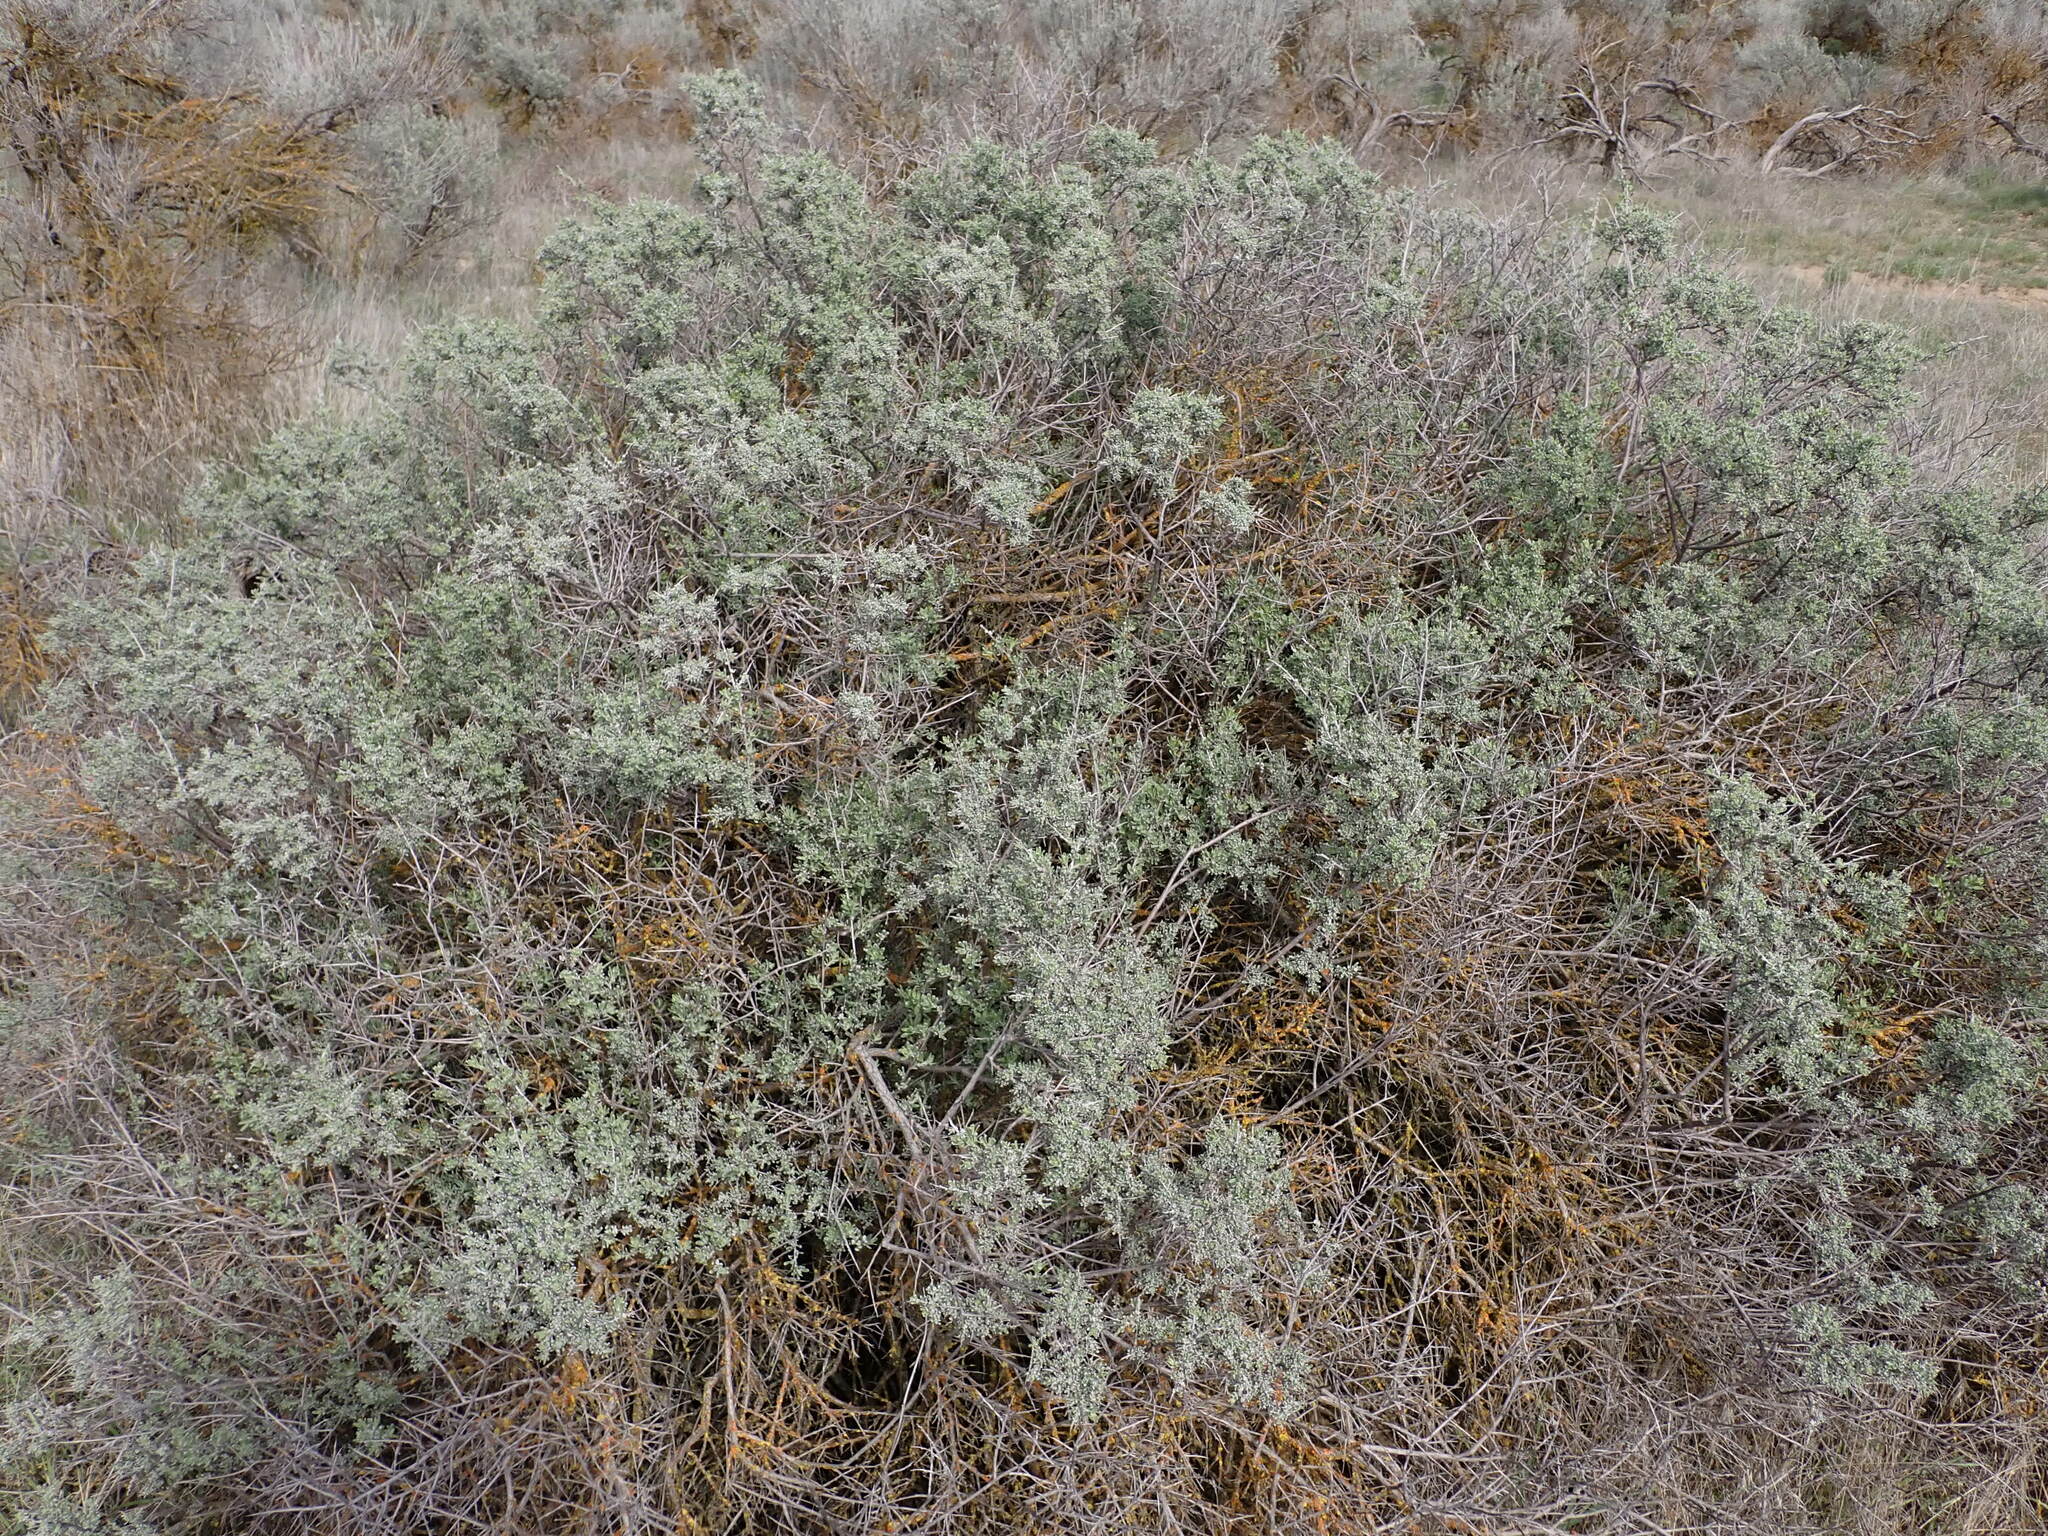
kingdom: Plantae
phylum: Tracheophyta
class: Magnoliopsida
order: Caryophyllales
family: Amaranthaceae
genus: Grayia
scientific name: Grayia spinosa
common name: Spiny hopsage
